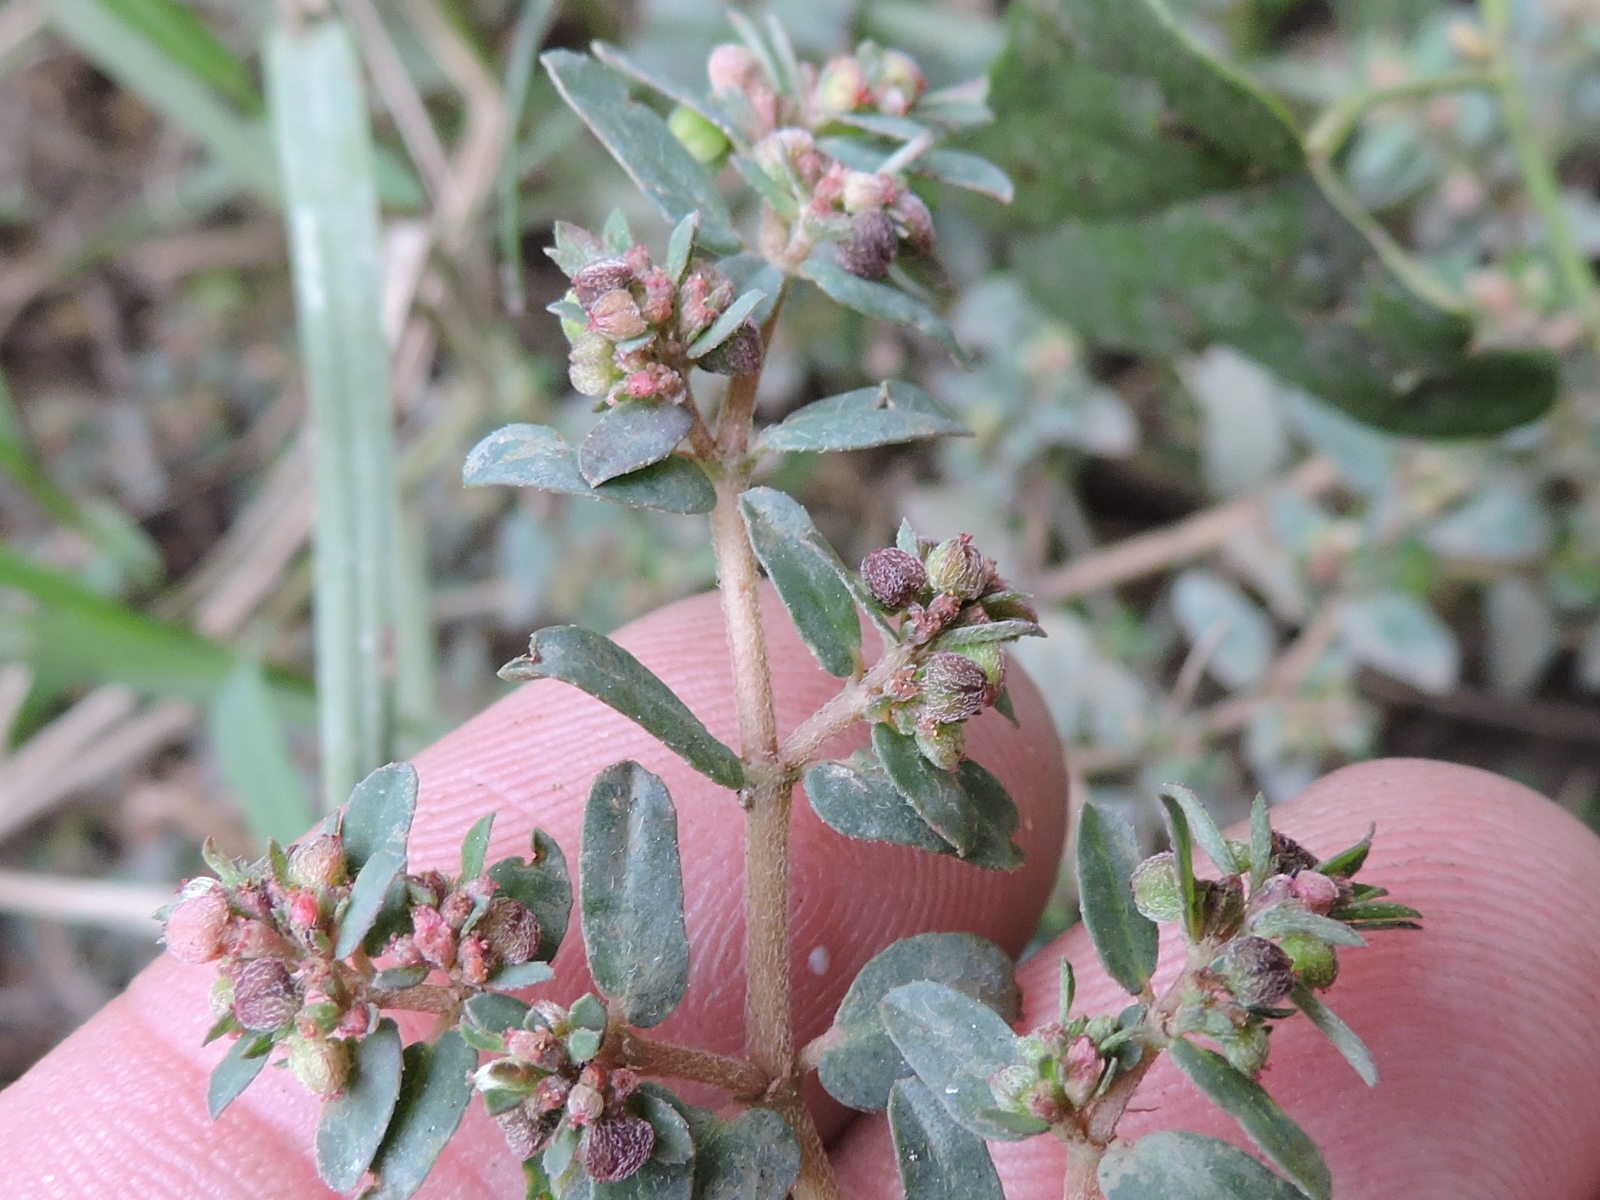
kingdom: Plantae
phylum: Tracheophyta
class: Magnoliopsida
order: Malpighiales
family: Euphorbiaceae
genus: Euphorbia
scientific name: Euphorbia maculata
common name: Spotted spurge
